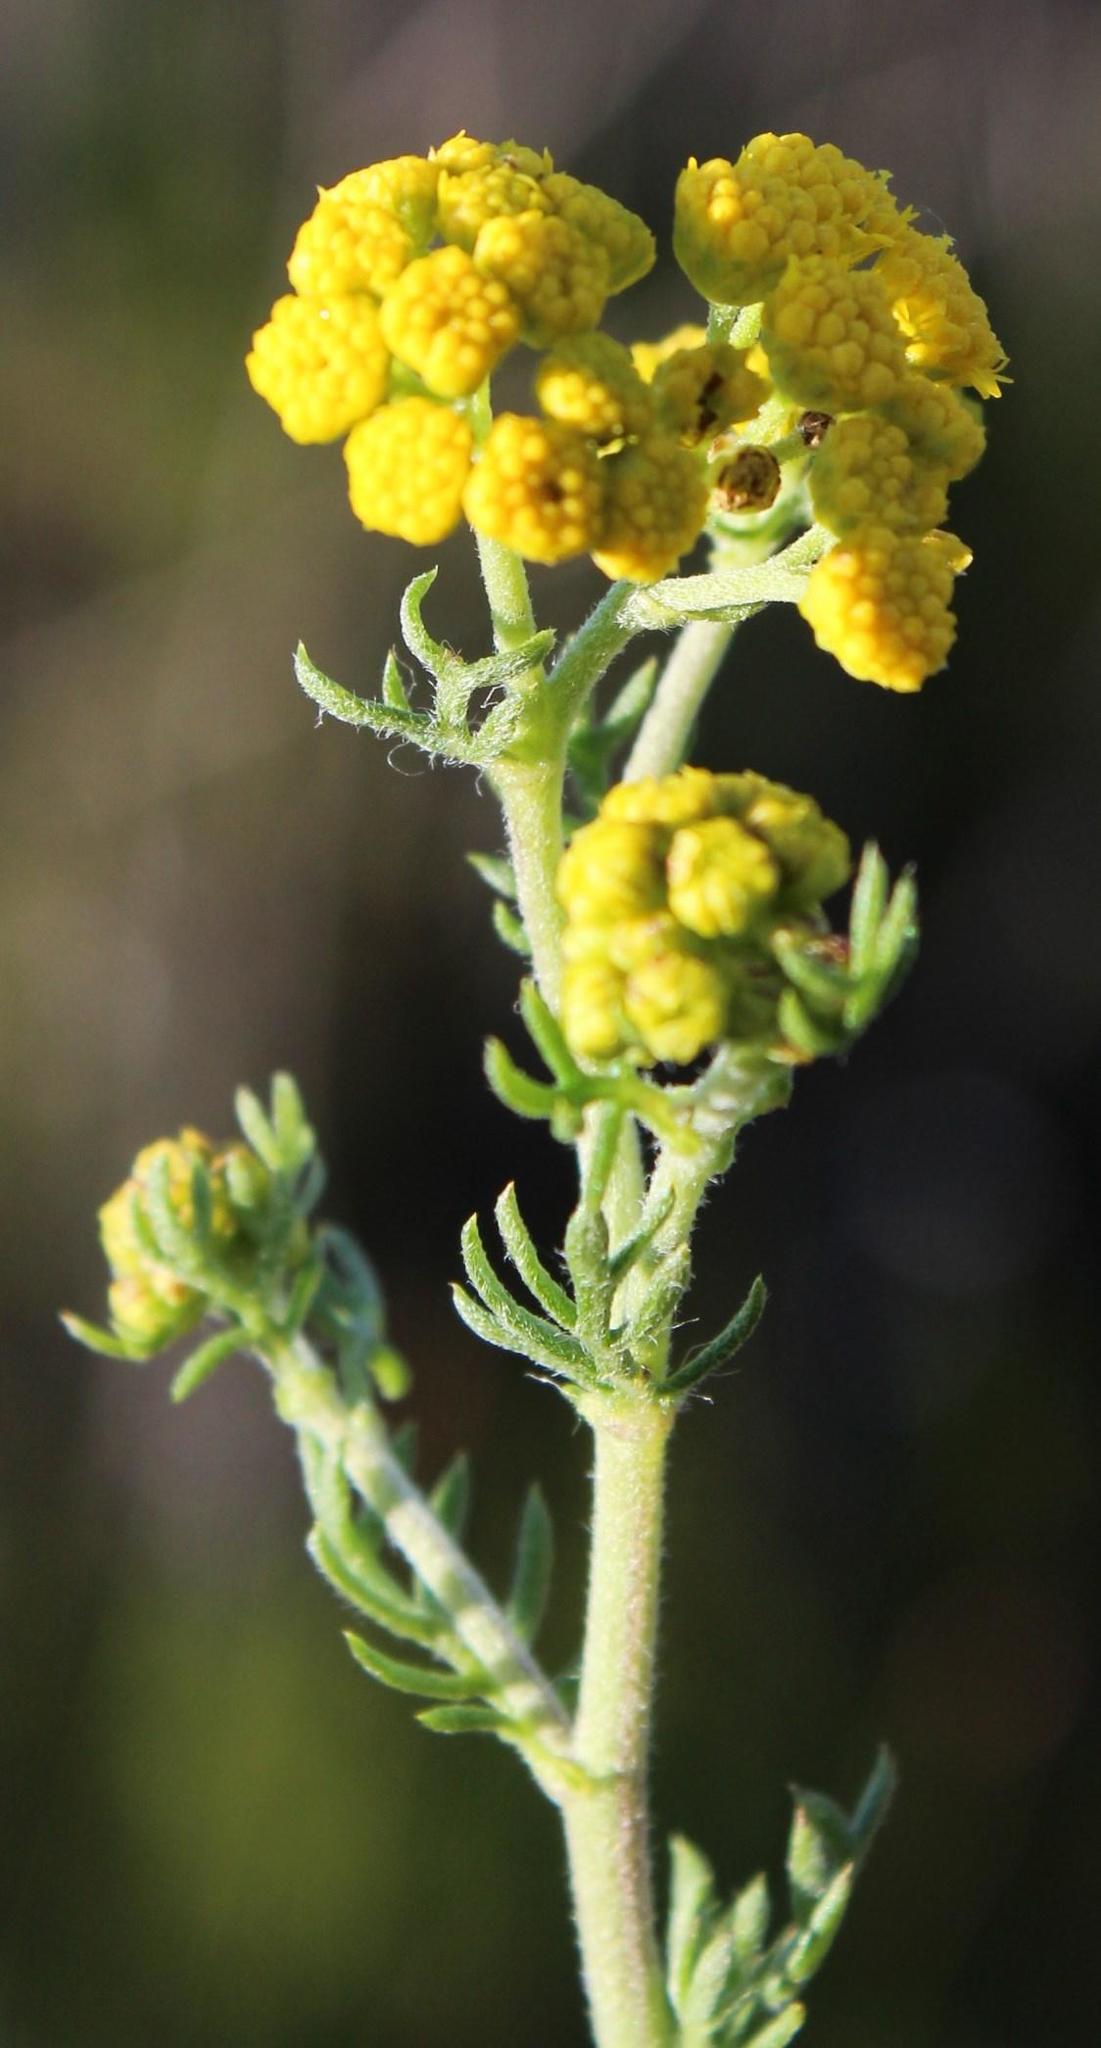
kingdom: Plantae
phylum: Tracheophyta
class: Magnoliopsida
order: Asterales
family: Asteraceae
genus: Nidorella
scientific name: Nidorella pinnata
